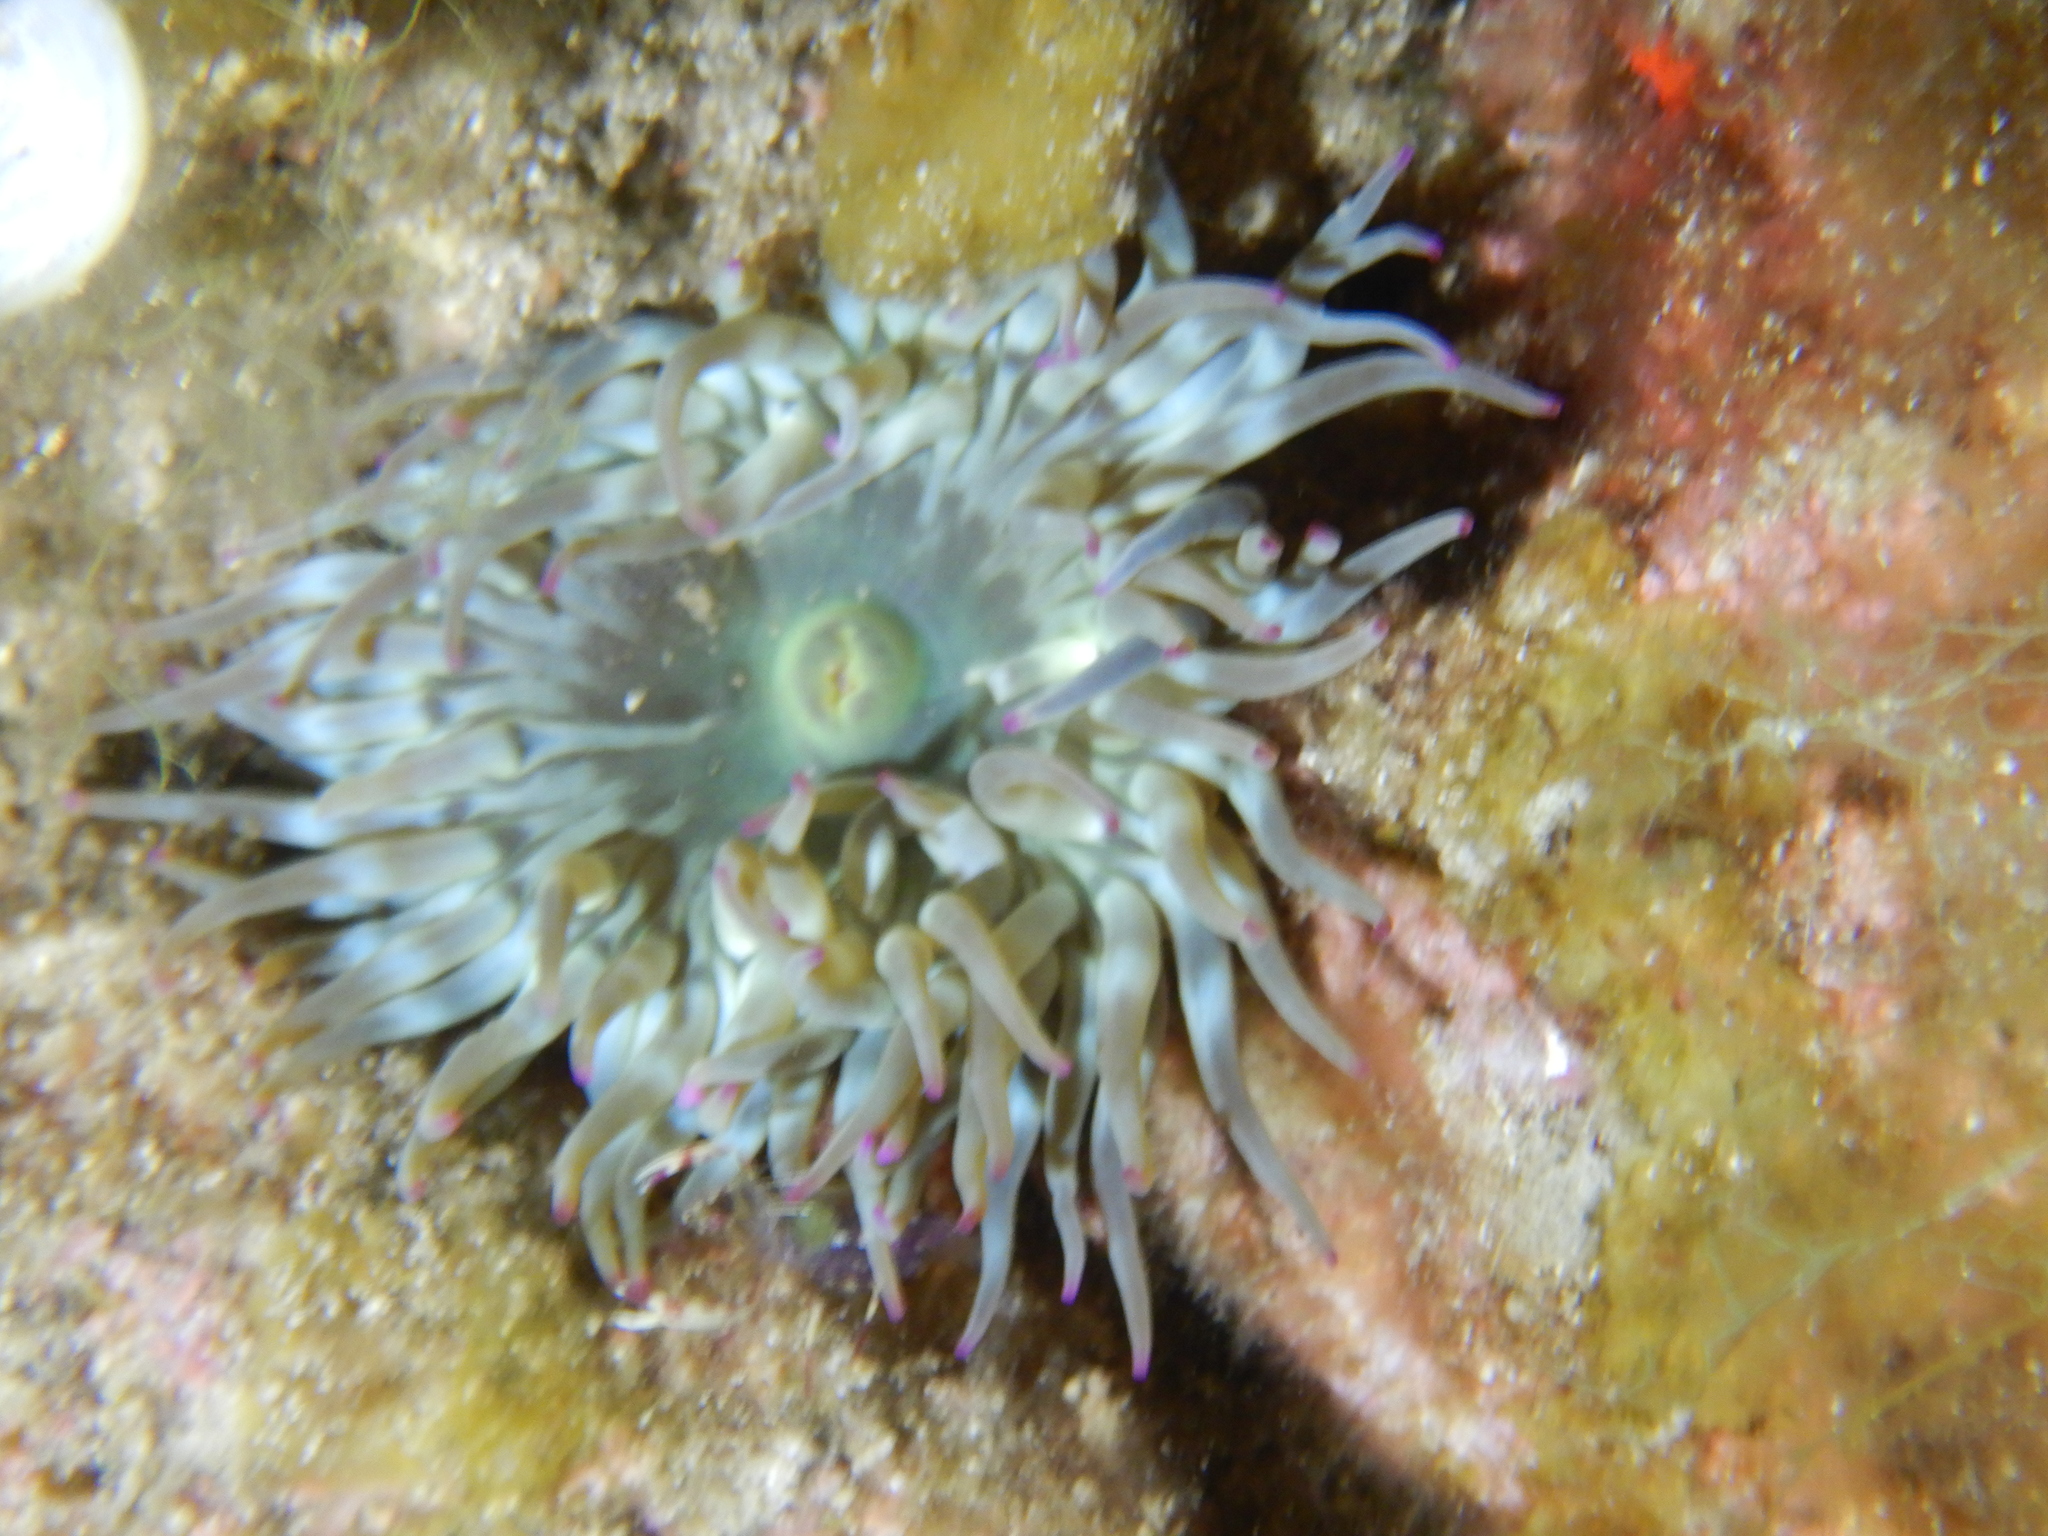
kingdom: Animalia
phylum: Cnidaria
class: Anthozoa
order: Actiniaria
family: Actiniidae
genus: Cribrinopsis
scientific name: Cribrinopsis crassa
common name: Fat anemone
